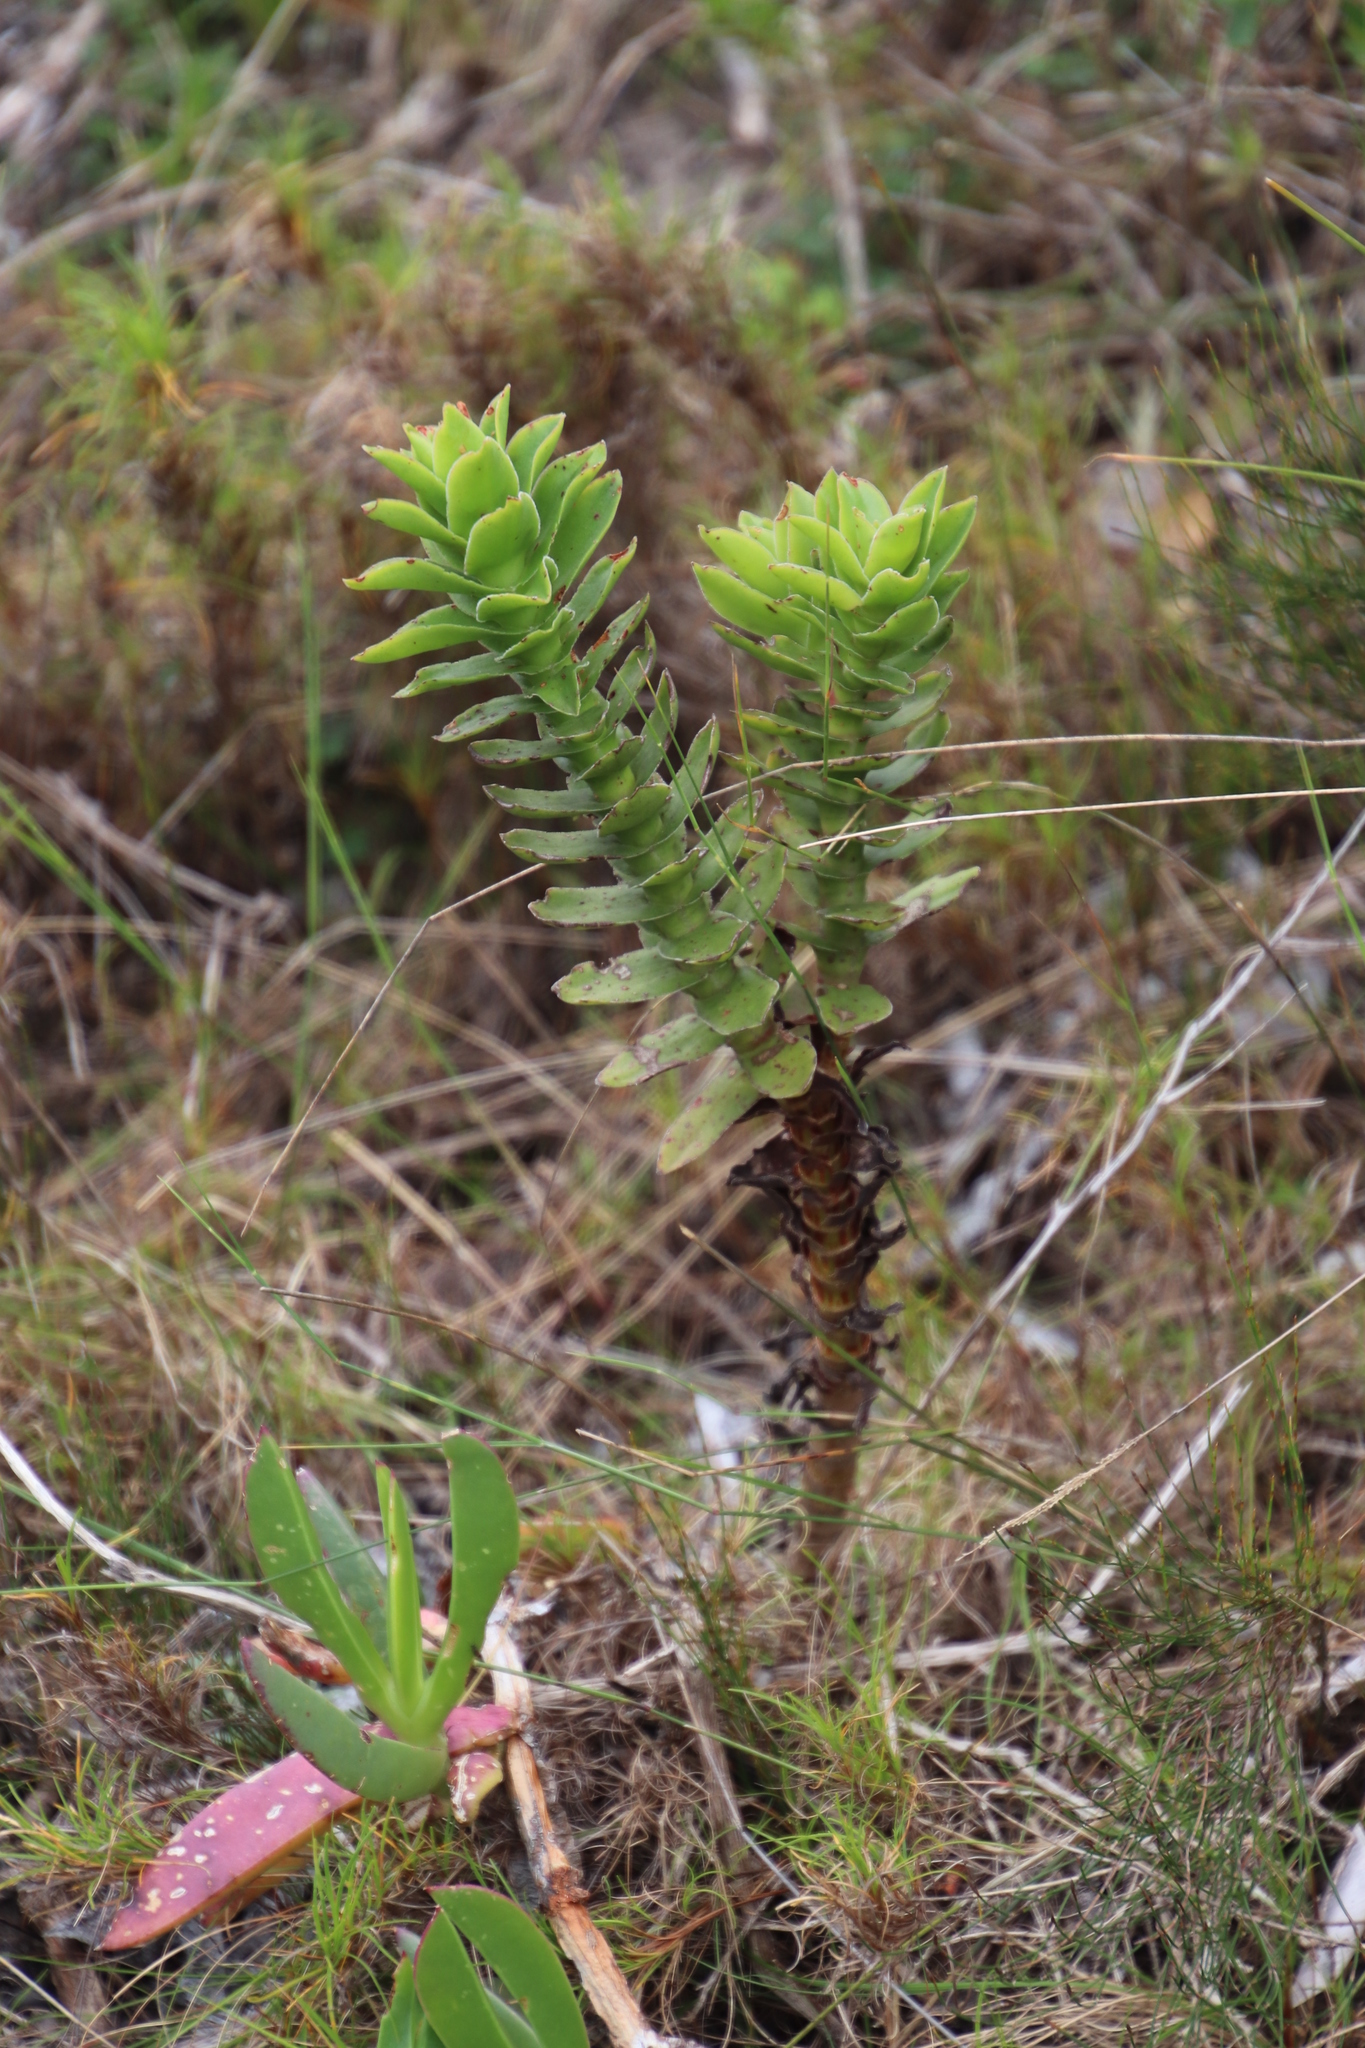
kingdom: Plantae
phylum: Tracheophyta
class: Magnoliopsida
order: Saxifragales
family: Crassulaceae
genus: Crassula
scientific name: Crassula coccinea
